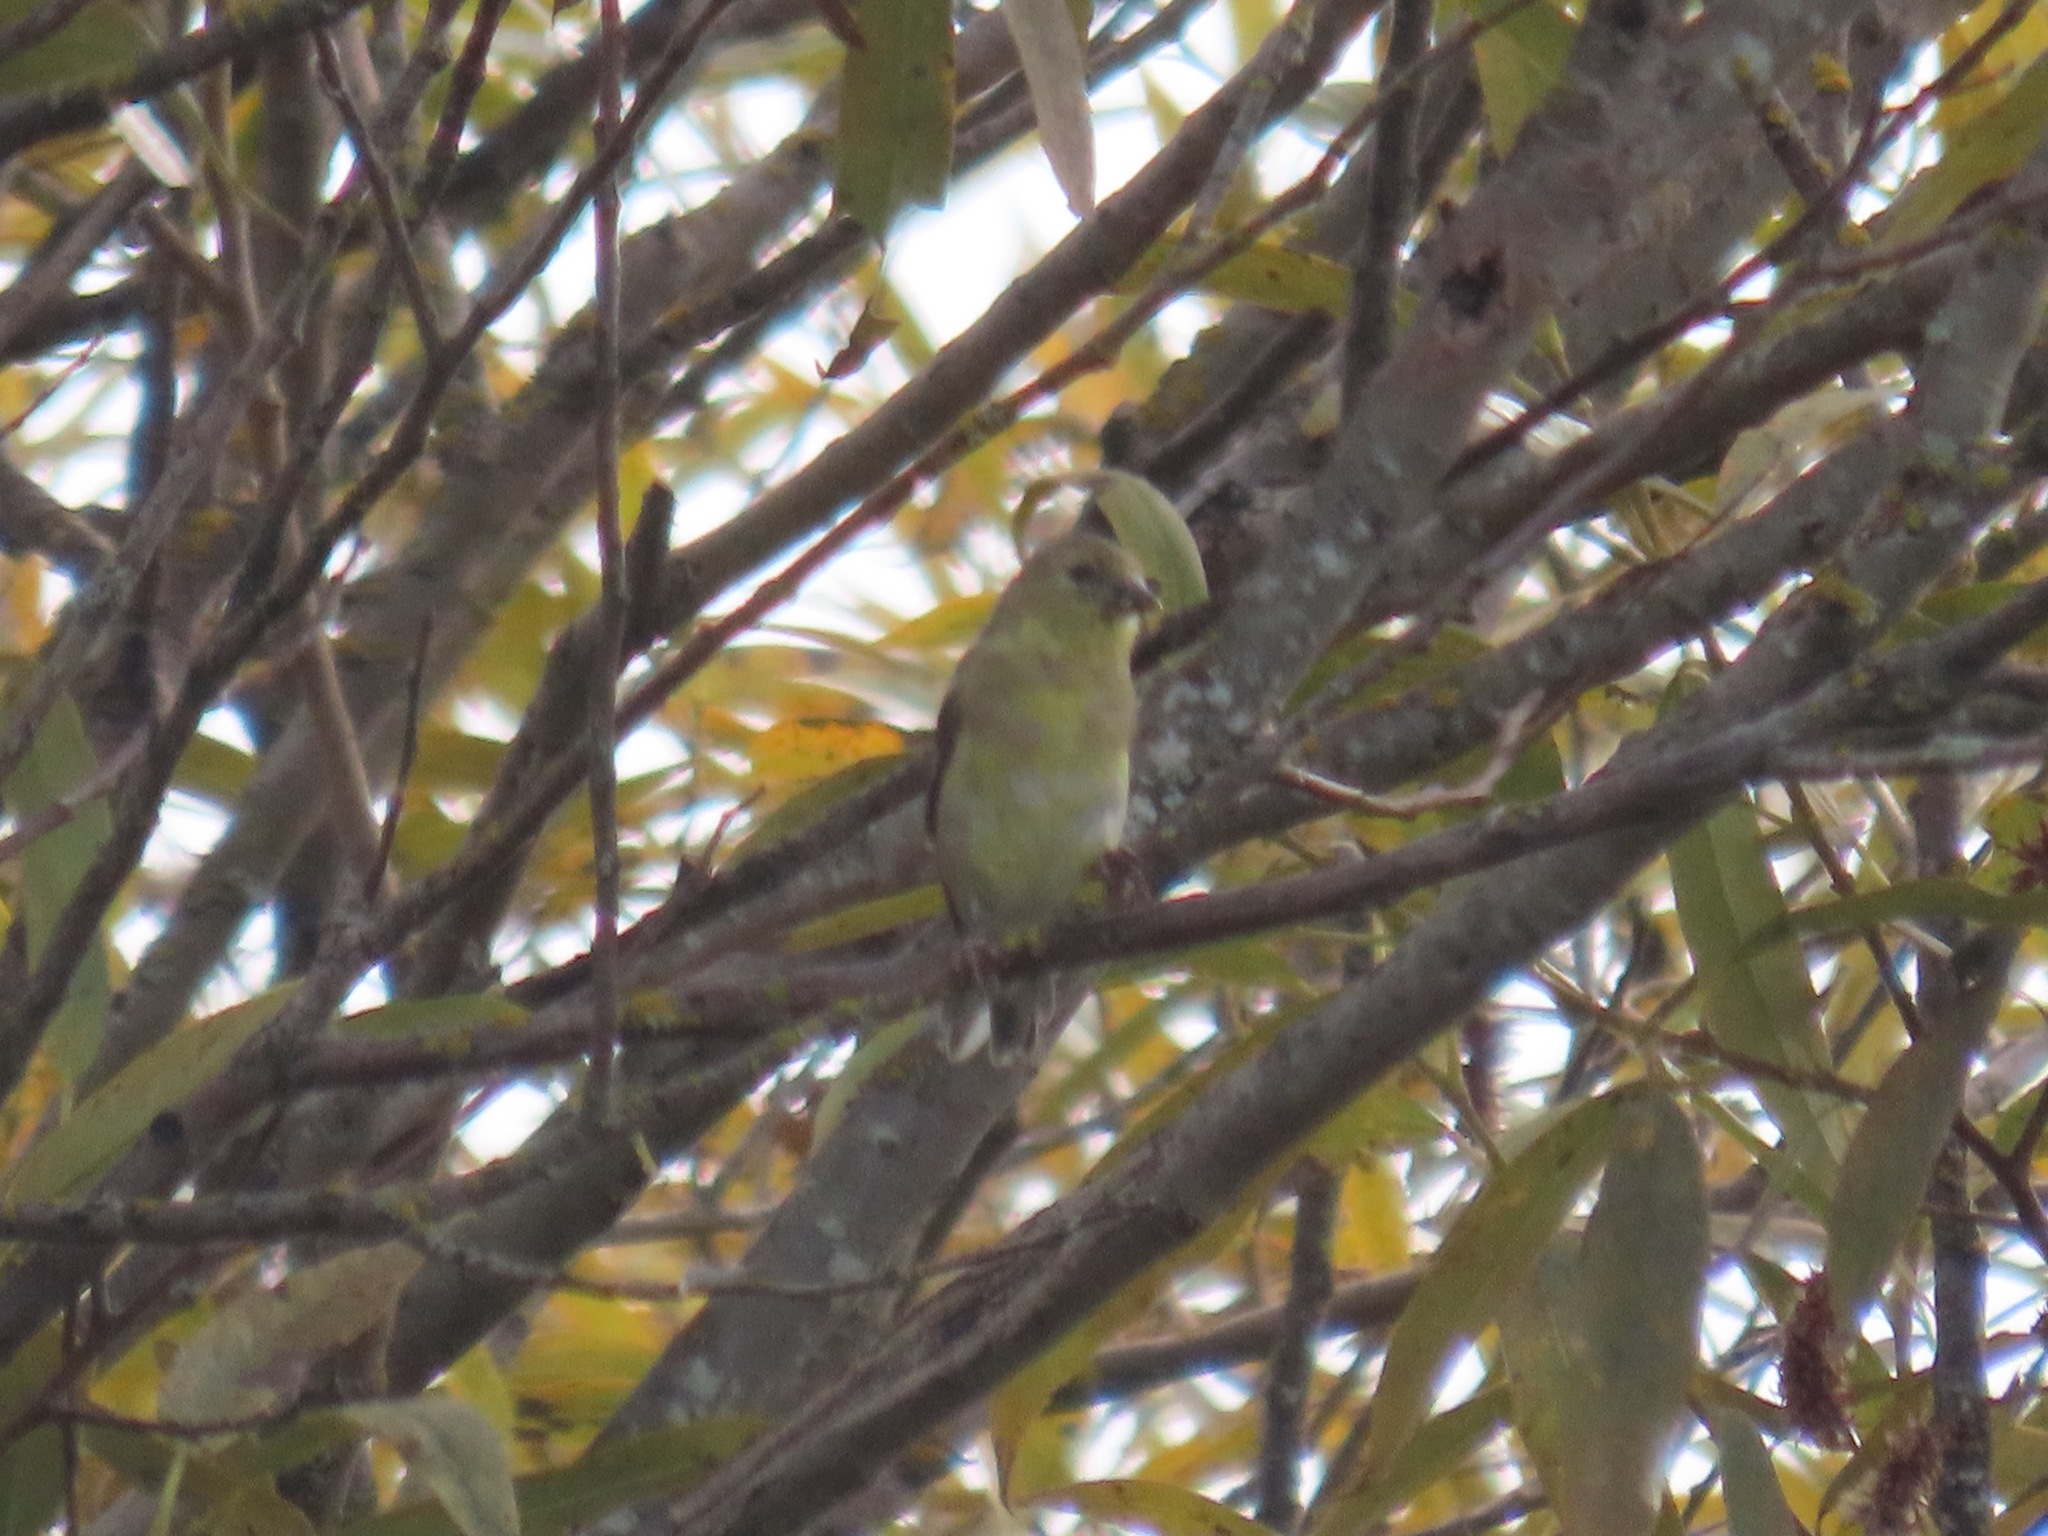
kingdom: Animalia
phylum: Chordata
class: Aves
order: Passeriformes
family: Fringillidae
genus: Spinus
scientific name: Spinus tristis
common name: American goldfinch
